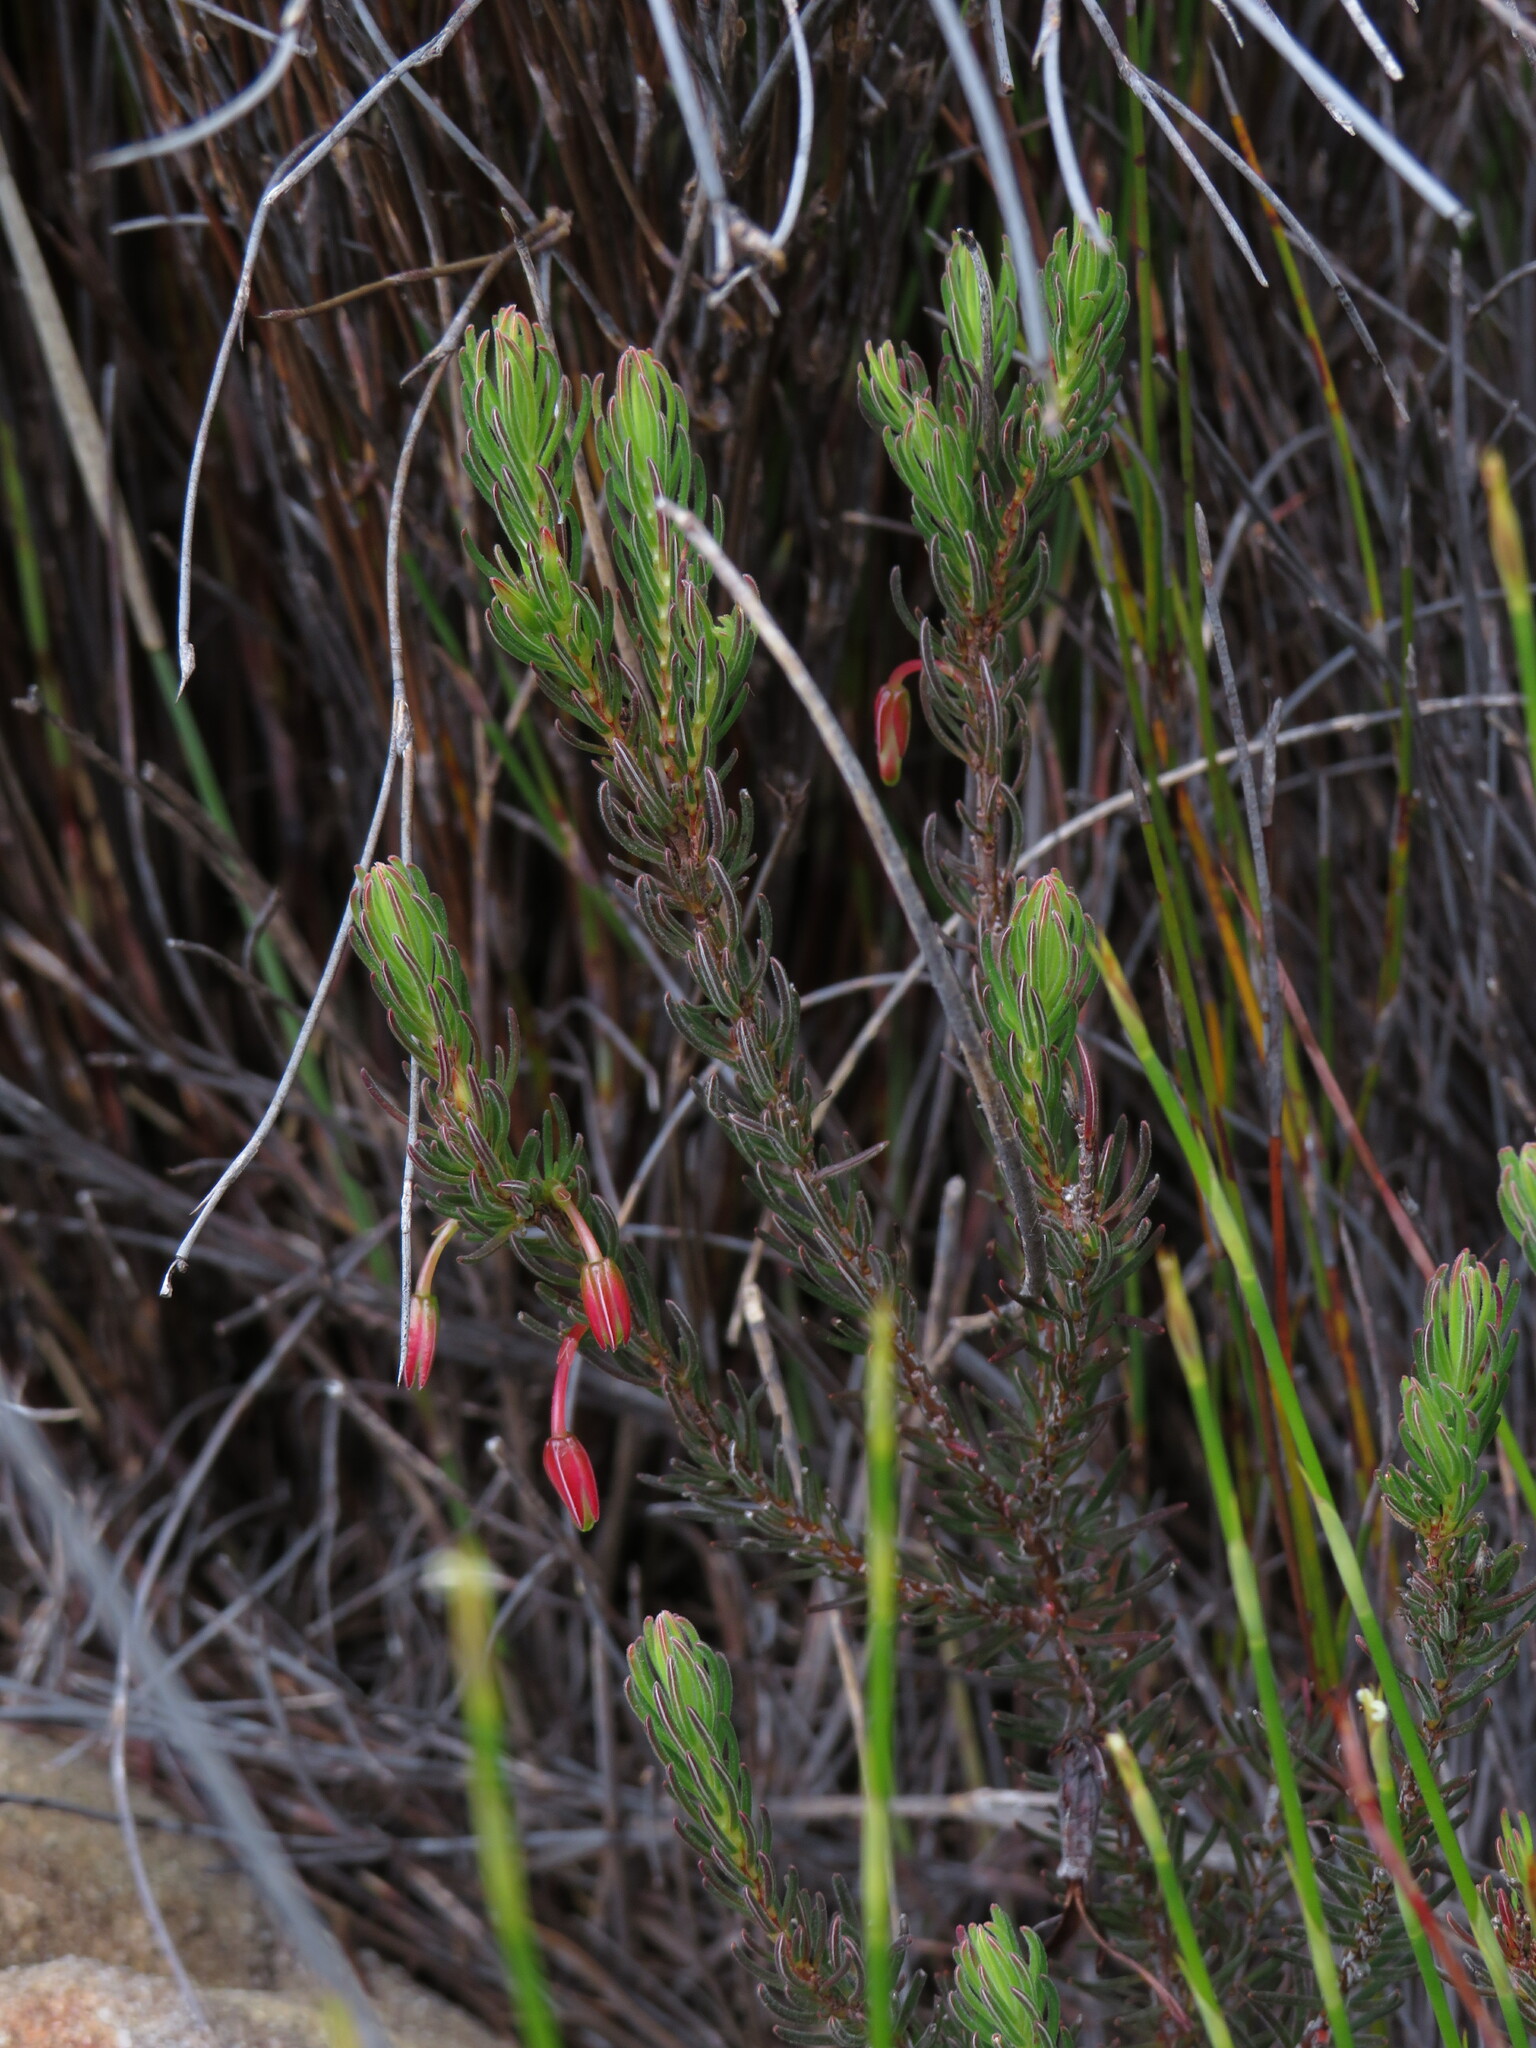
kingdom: Plantae
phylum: Tracheophyta
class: Magnoliopsida
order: Ericales
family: Ericaceae
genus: Erica
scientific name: Erica plukenetii
